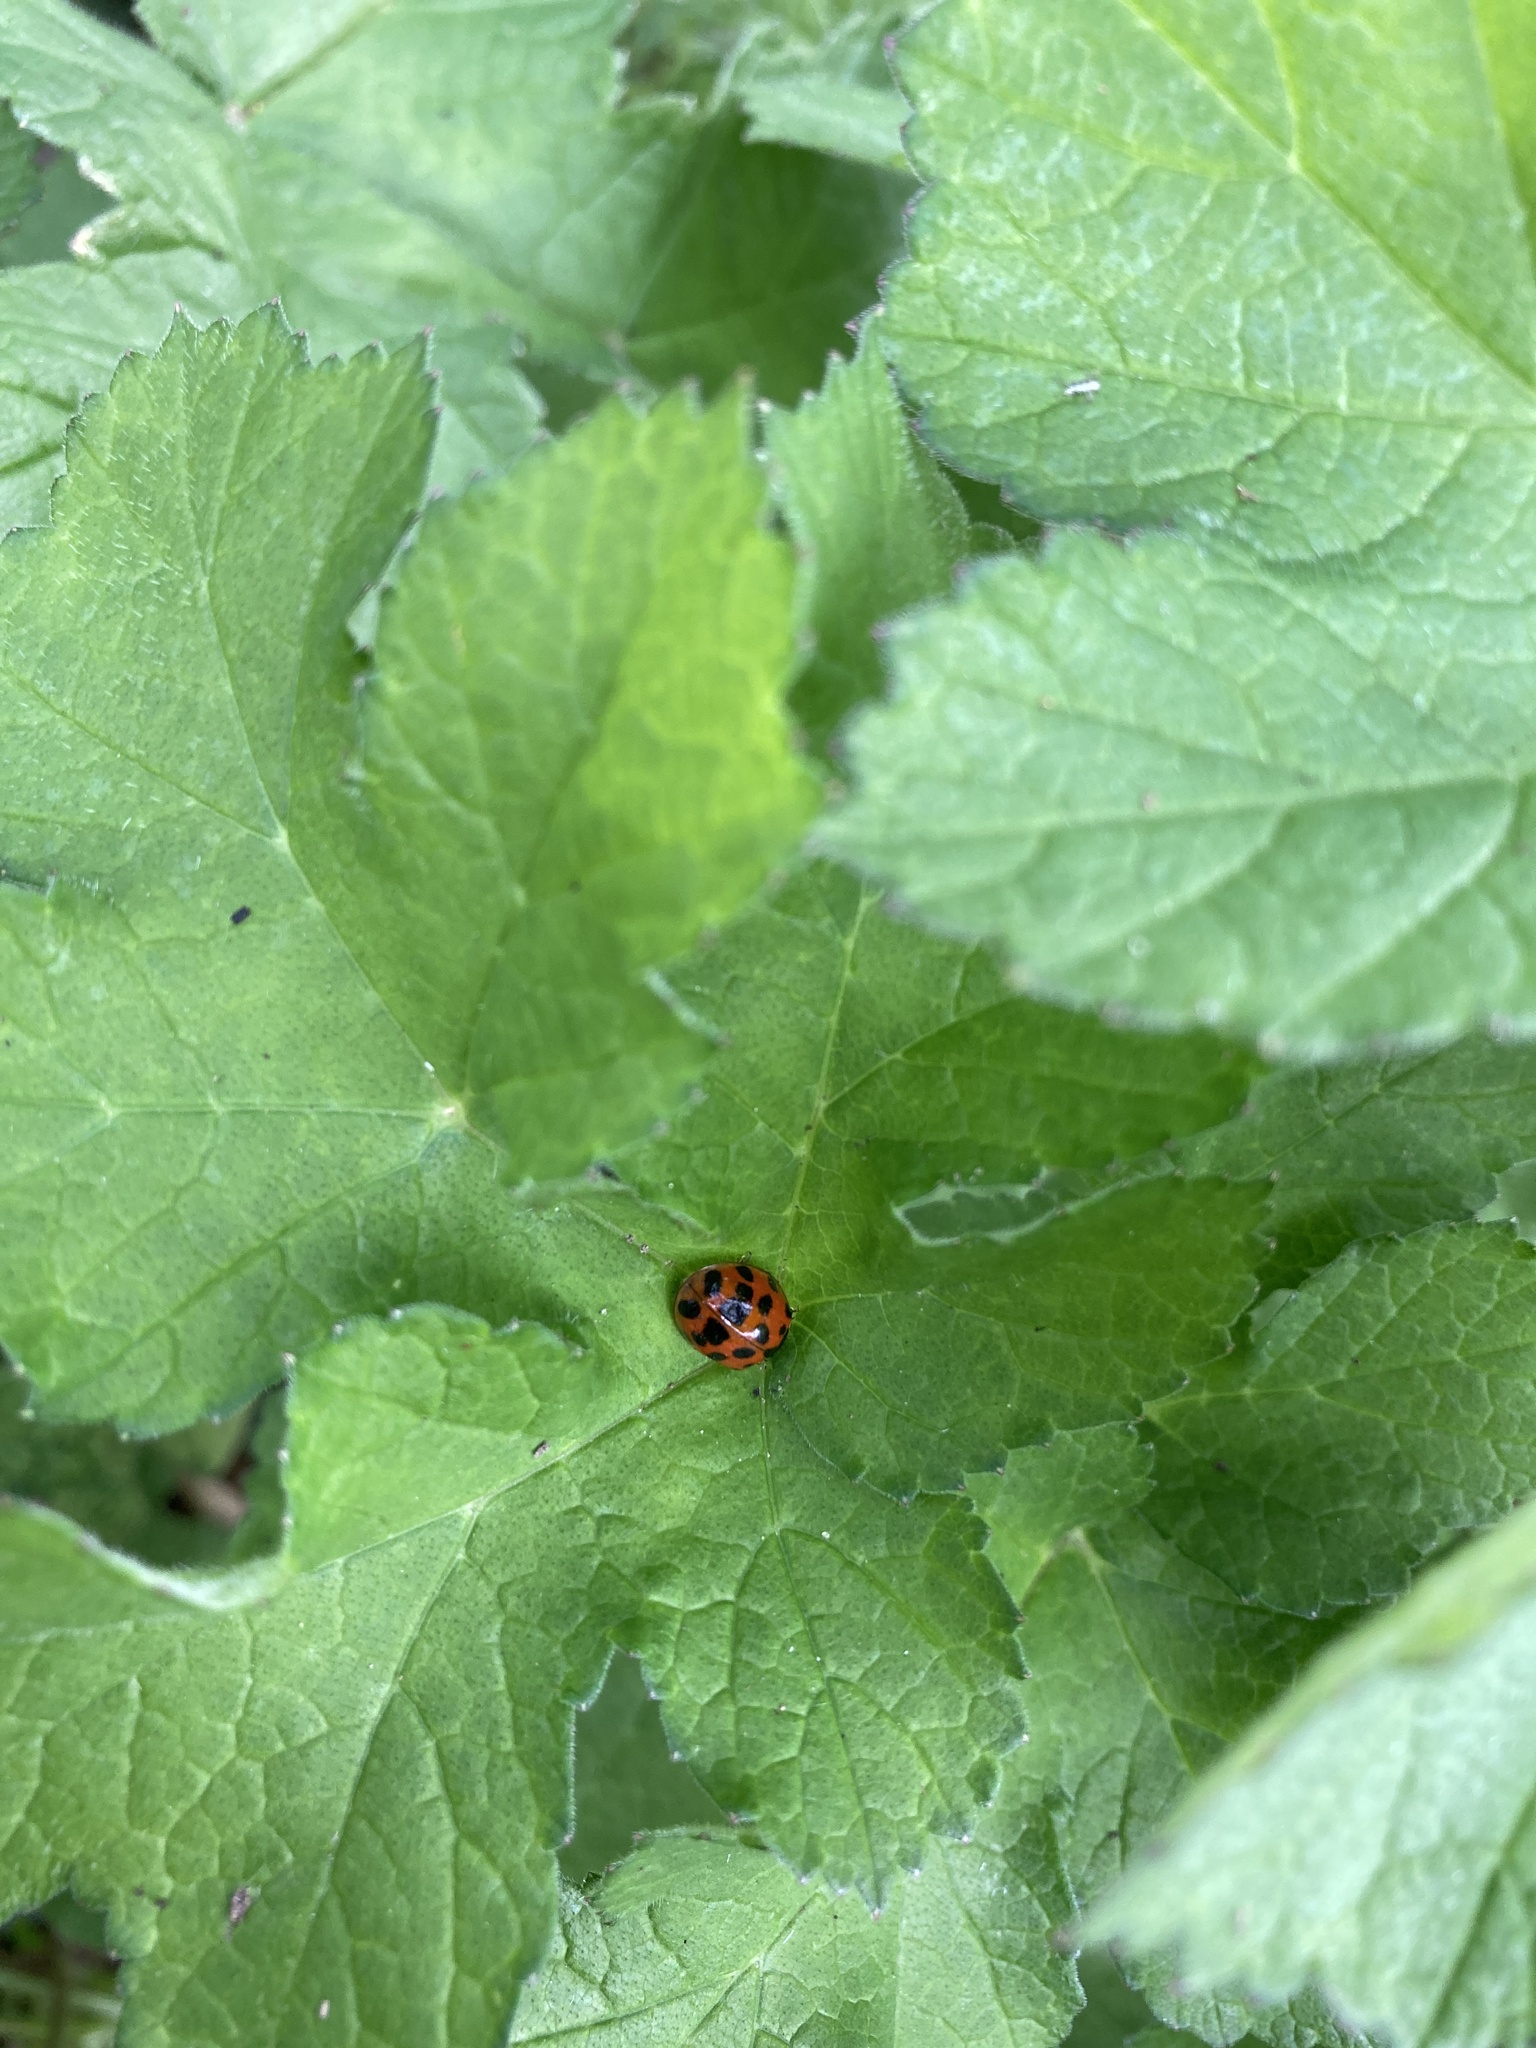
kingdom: Animalia
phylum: Arthropoda
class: Insecta
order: Coleoptera
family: Coccinellidae
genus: Harmonia
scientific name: Harmonia axyridis
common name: Harlequin ladybird
